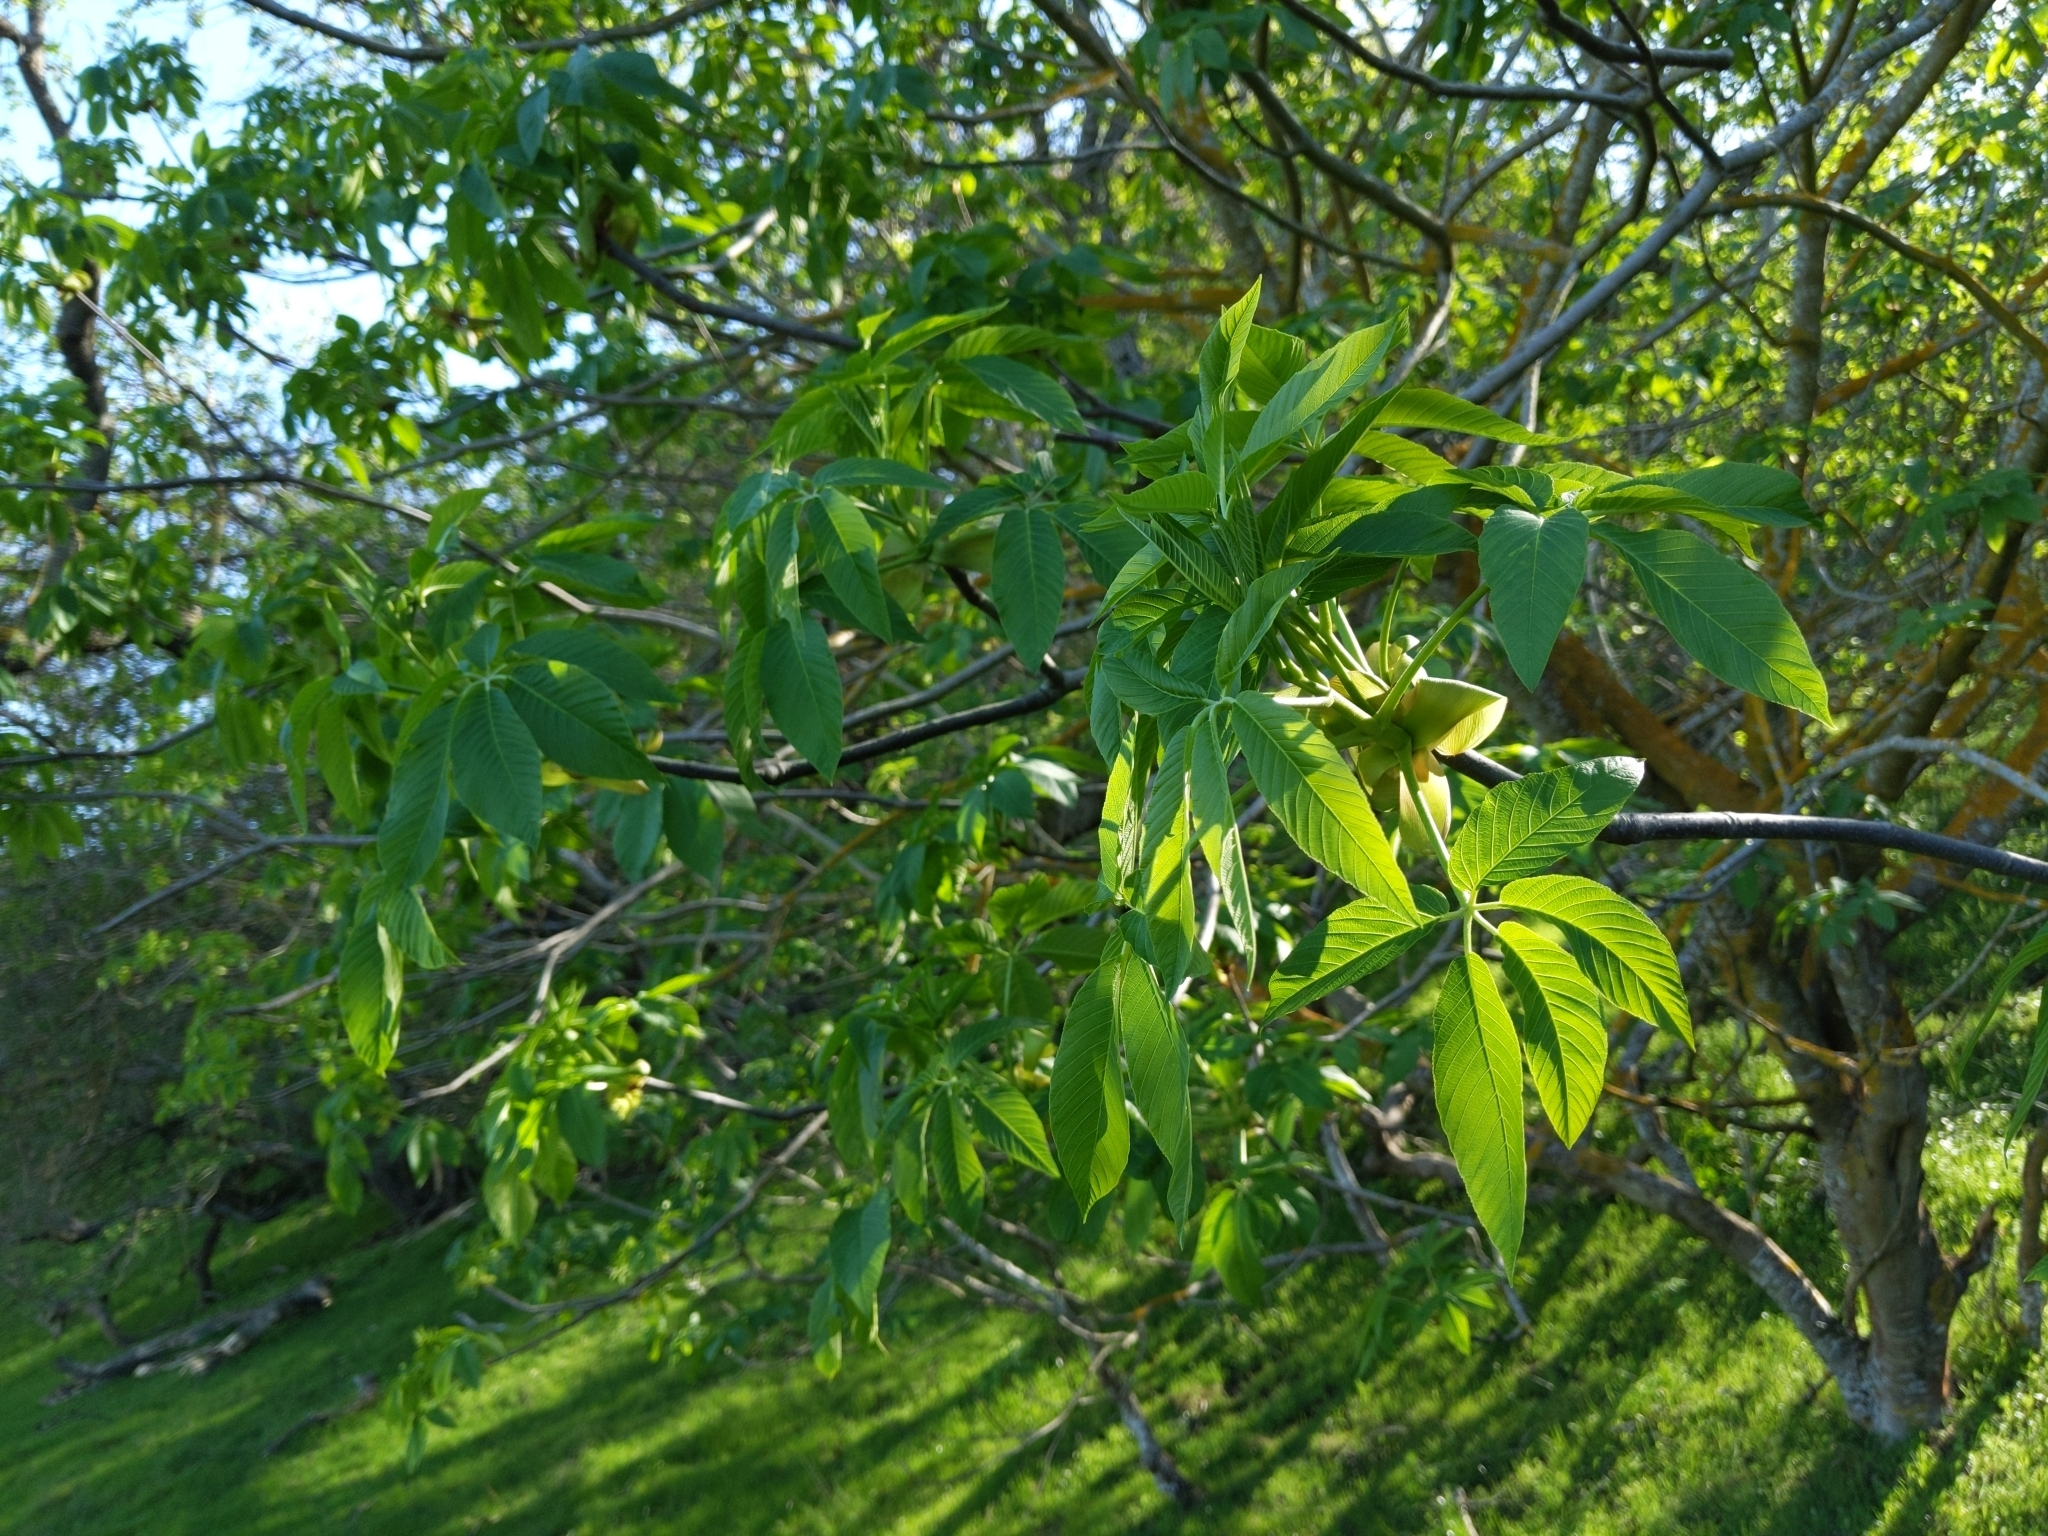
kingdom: Plantae
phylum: Tracheophyta
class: Magnoliopsida
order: Sapindales
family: Sapindaceae
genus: Aesculus
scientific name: Aesculus californica
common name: California buckeye
